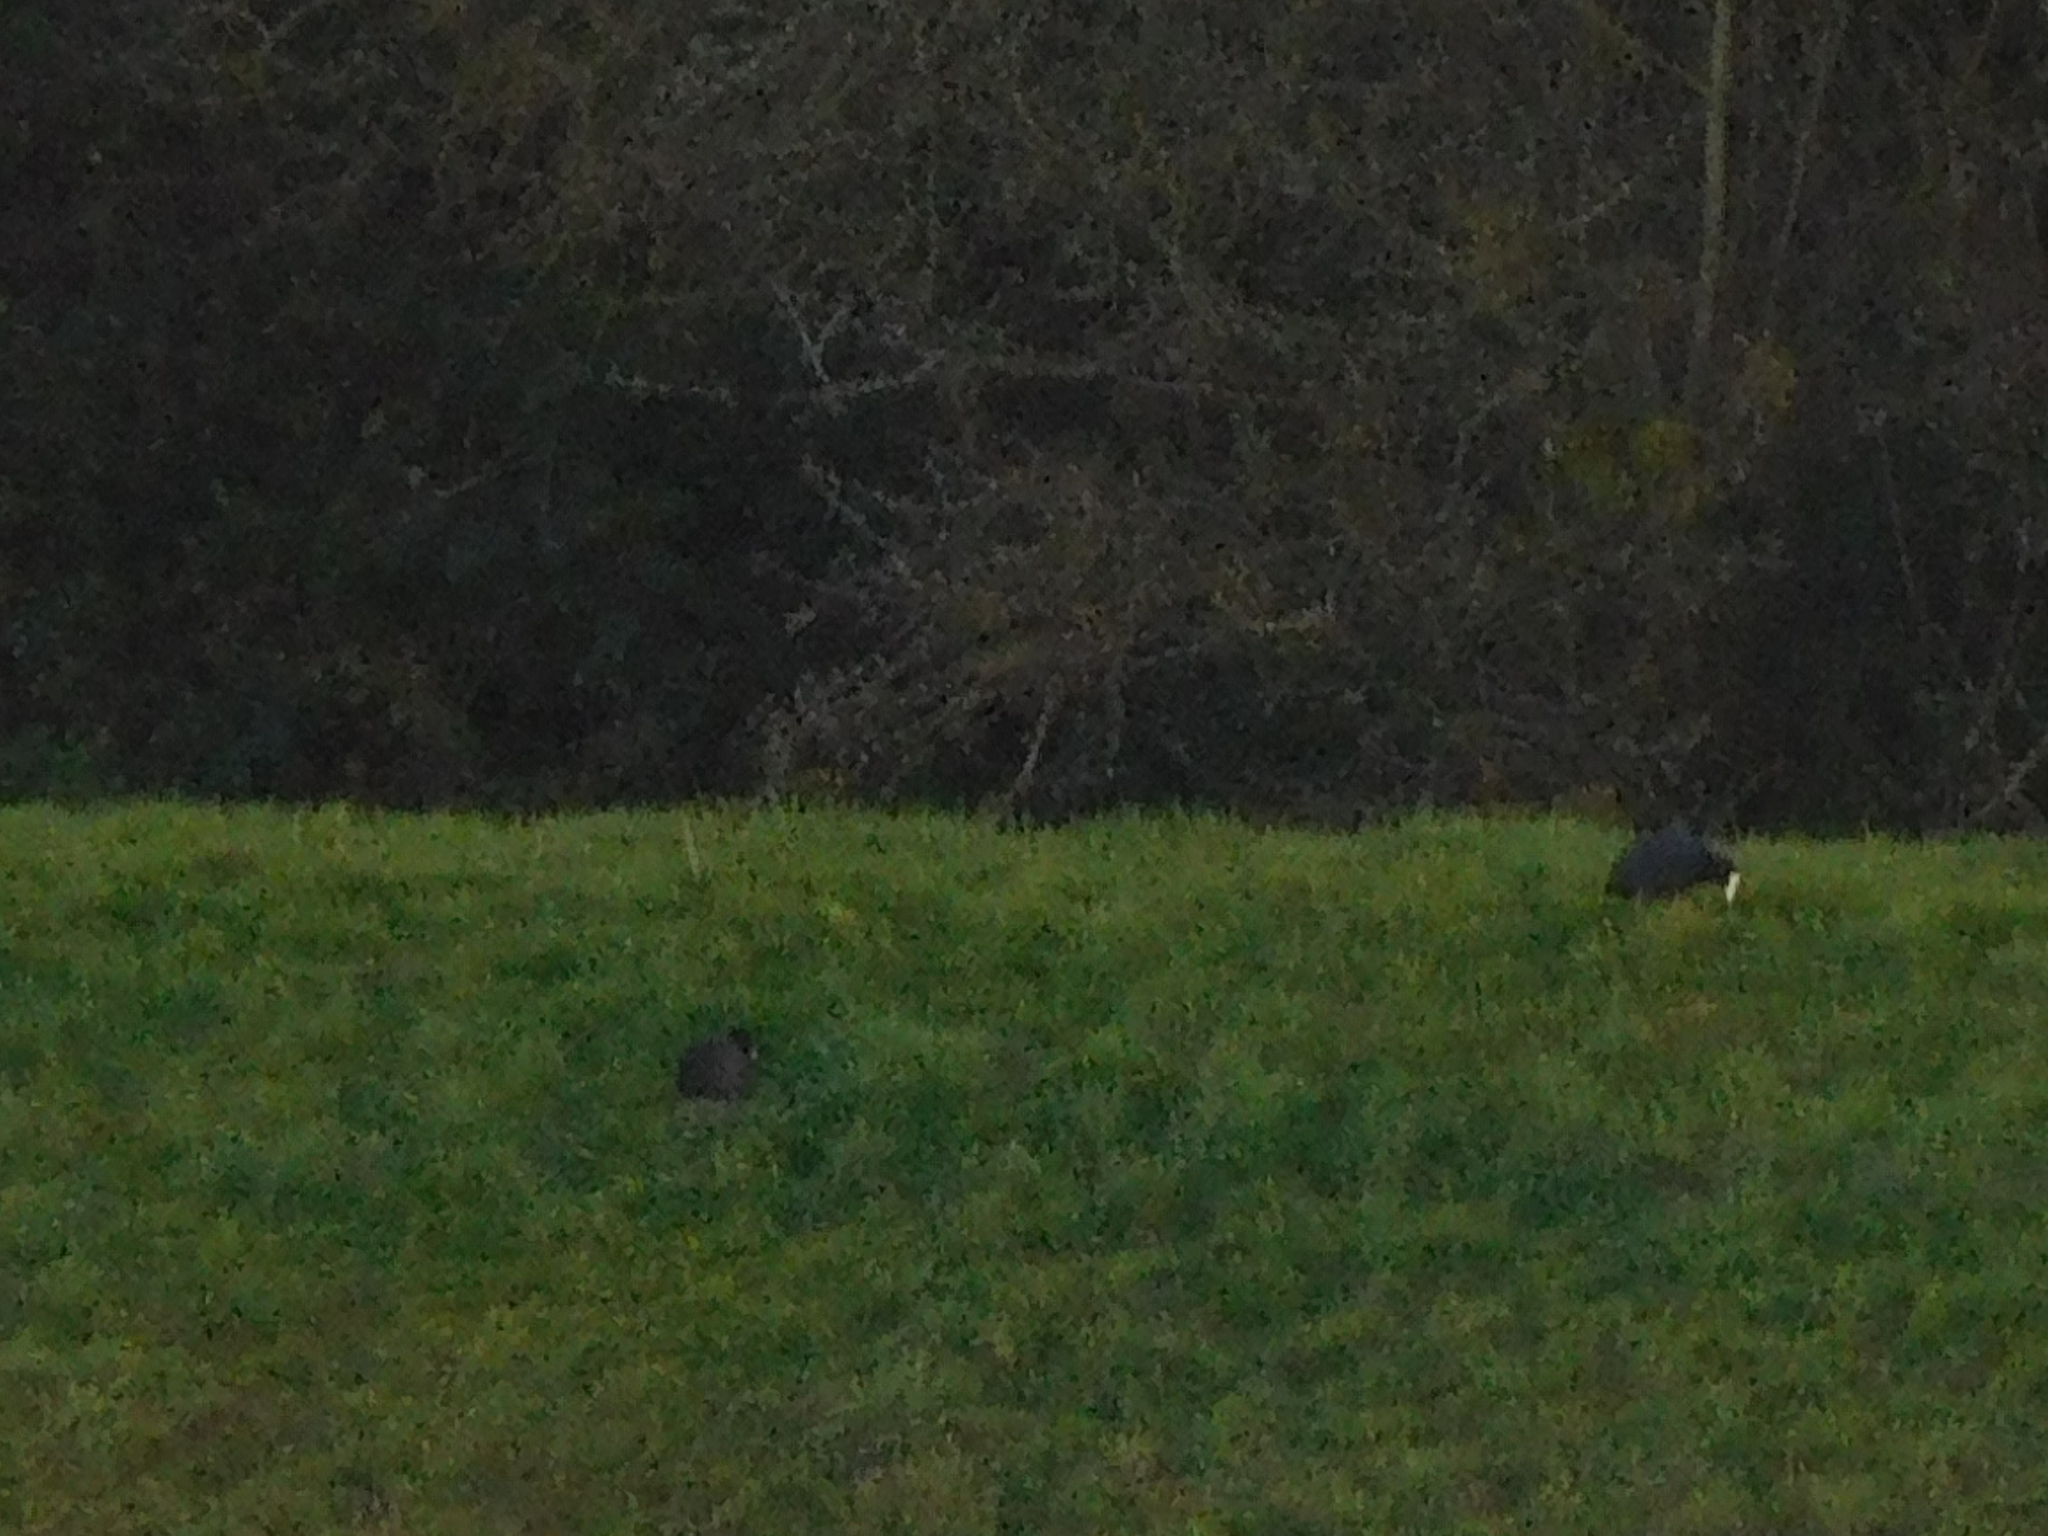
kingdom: Animalia
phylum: Chordata
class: Aves
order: Gruiformes
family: Rallidae
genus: Fulica
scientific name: Fulica atra
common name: Eurasian coot
